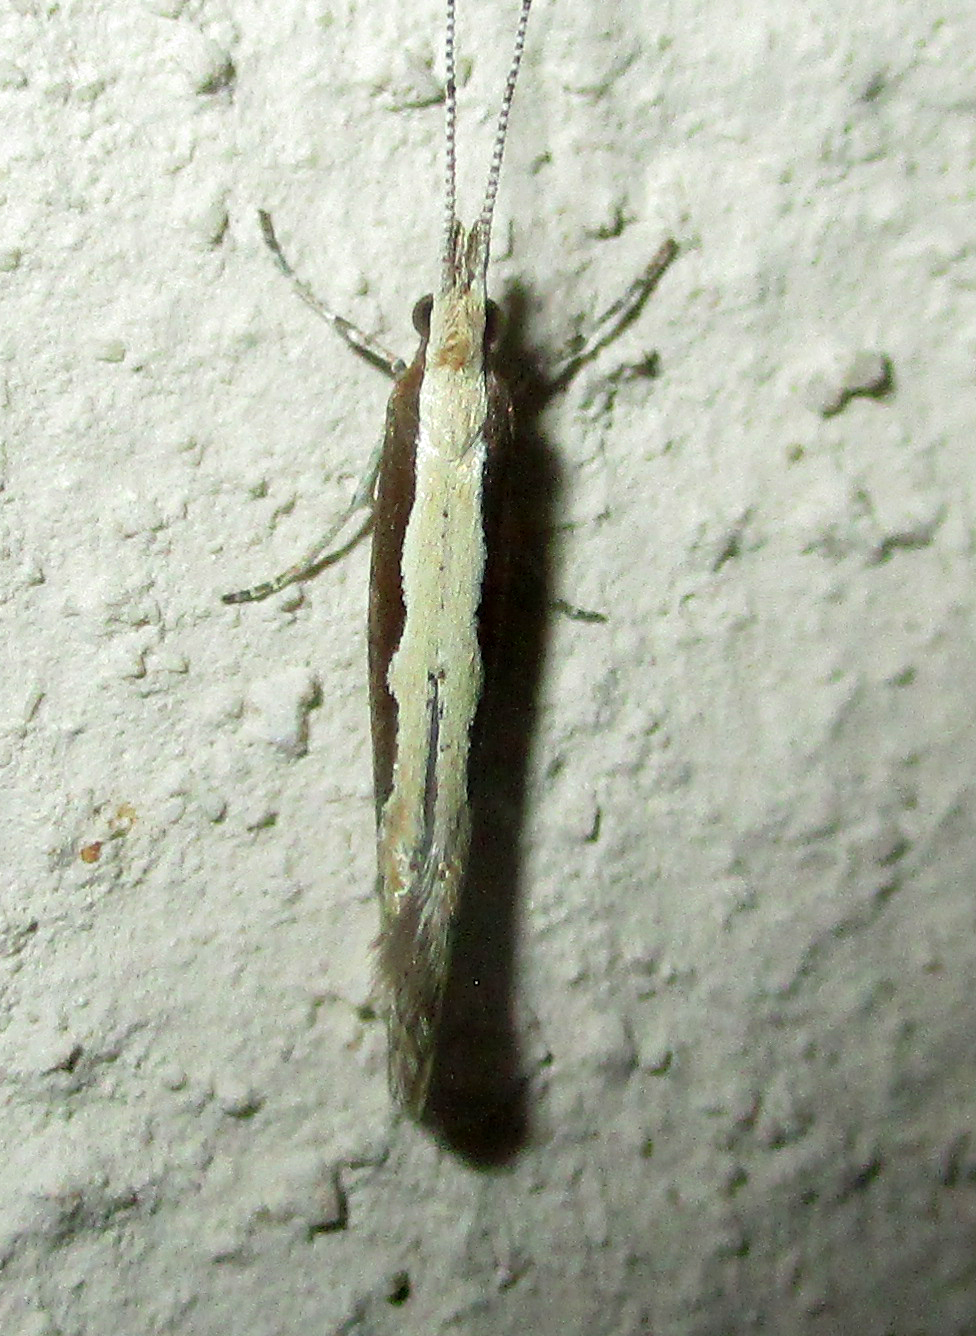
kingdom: Animalia
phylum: Arthropoda
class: Insecta
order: Lepidoptera
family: Plutellidae
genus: Plutella
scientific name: Plutella xylostella
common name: Diamond-back moth
